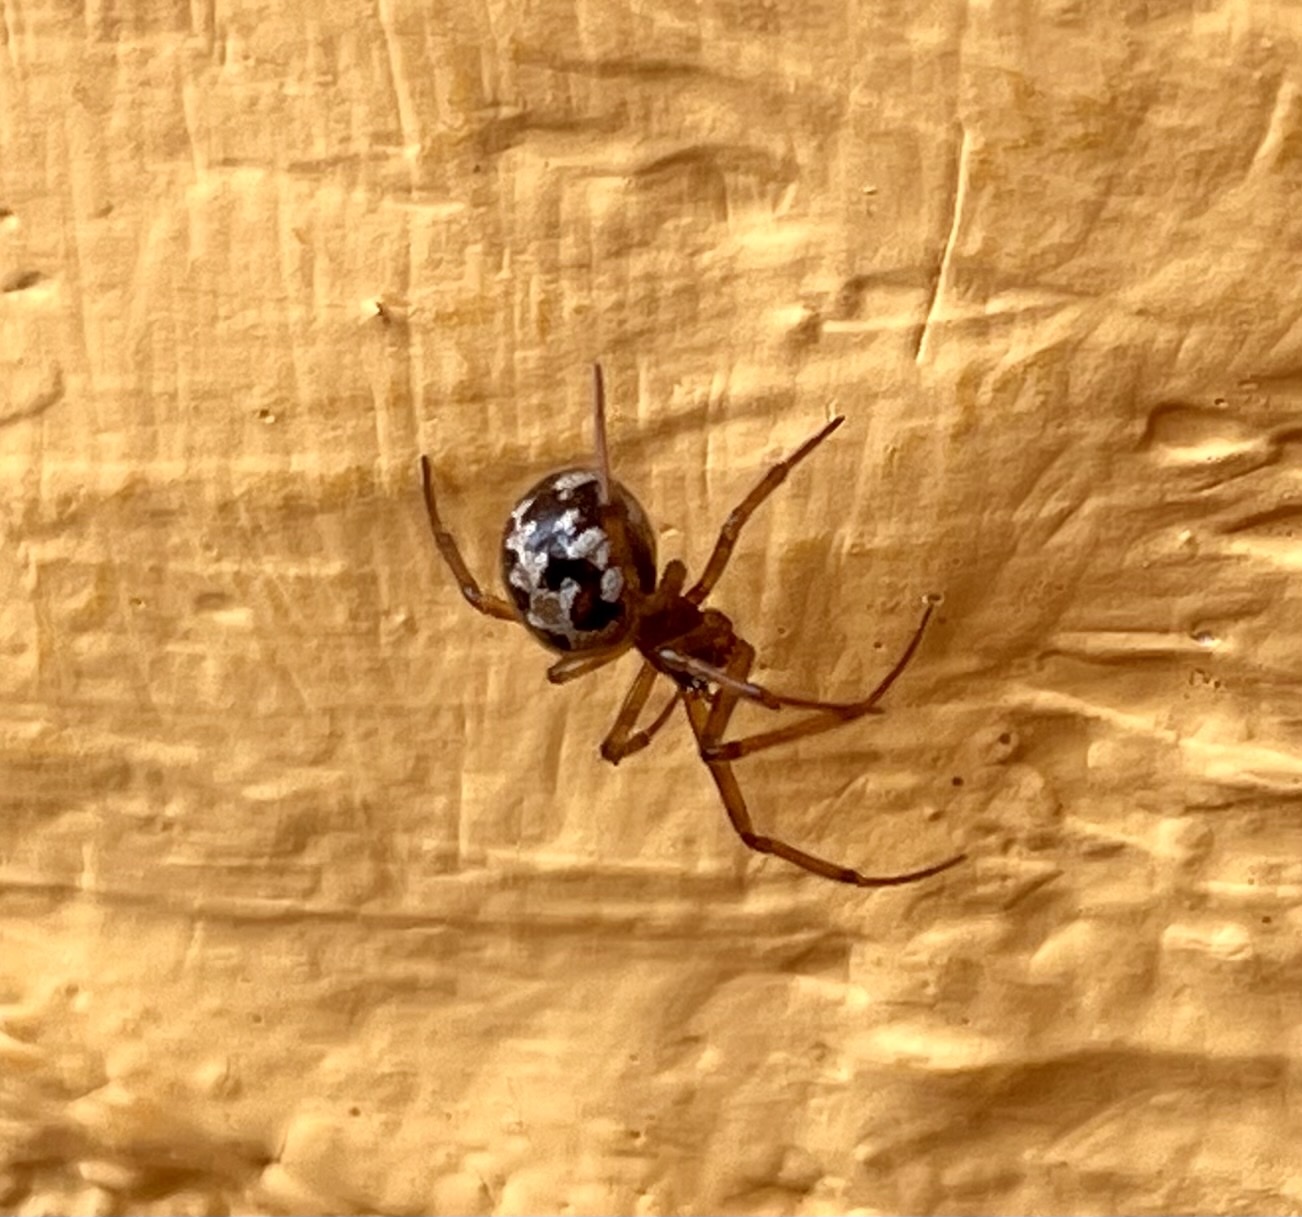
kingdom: Animalia
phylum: Arthropoda
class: Arachnida
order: Araneae
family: Theridiidae
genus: Steatoda
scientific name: Steatoda triangulosa
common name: Triangulate bud spider
